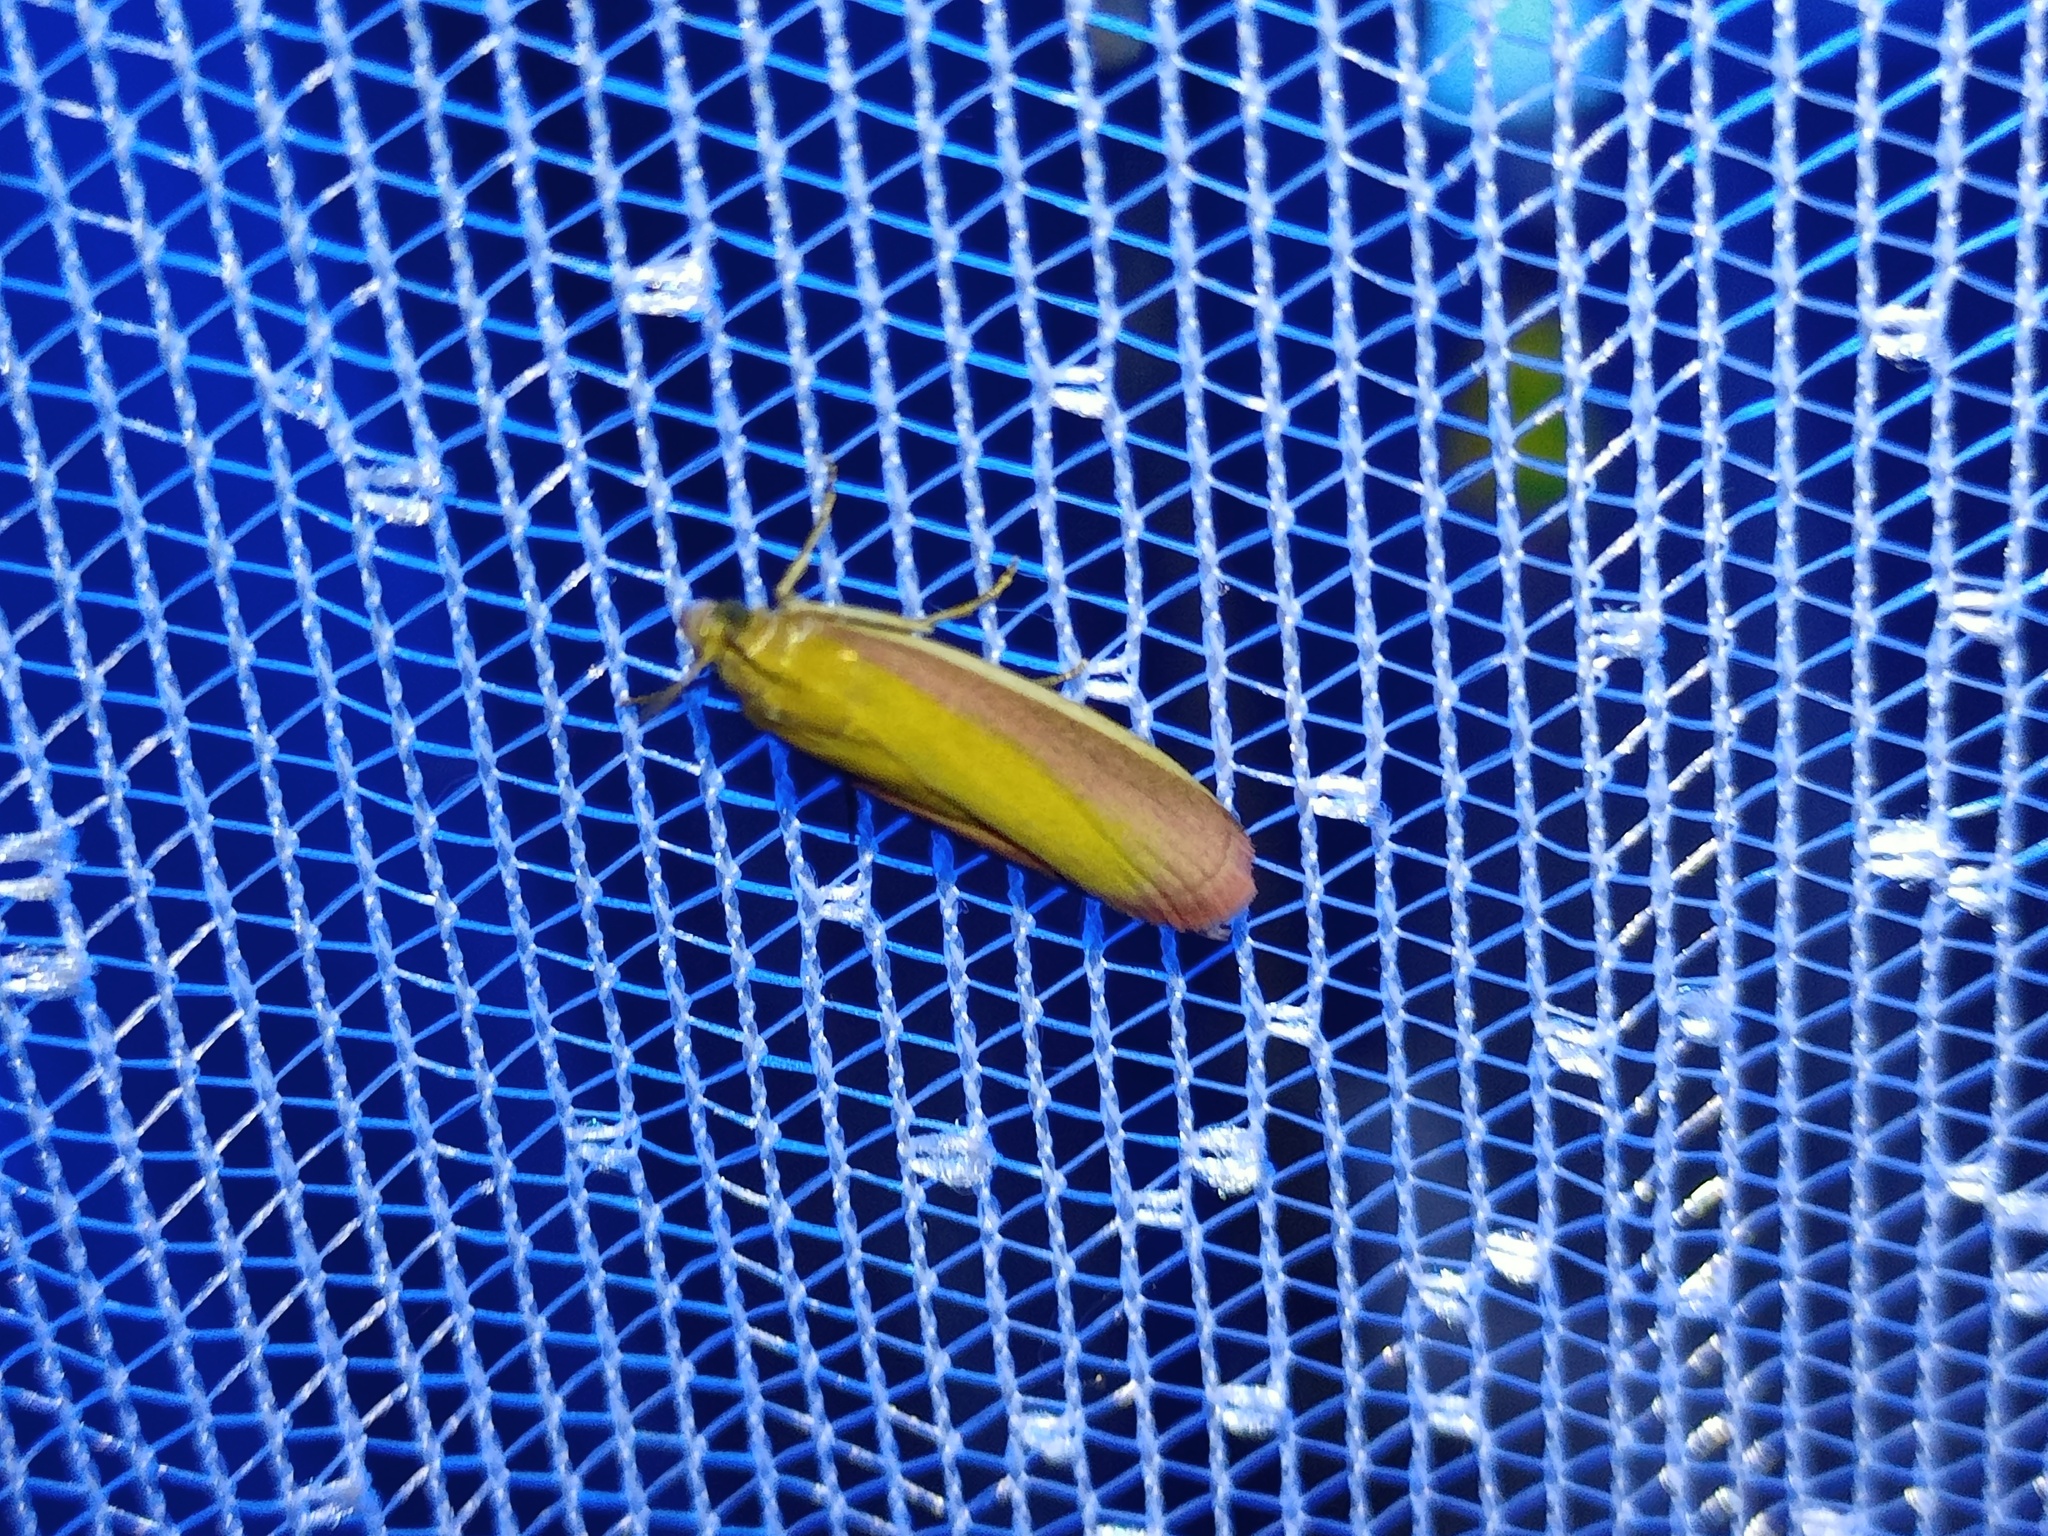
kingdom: Animalia
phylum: Arthropoda
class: Insecta
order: Lepidoptera
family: Pyralidae
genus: Oncocera
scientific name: Oncocera semirubella
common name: Rosy-striped knot-horn
